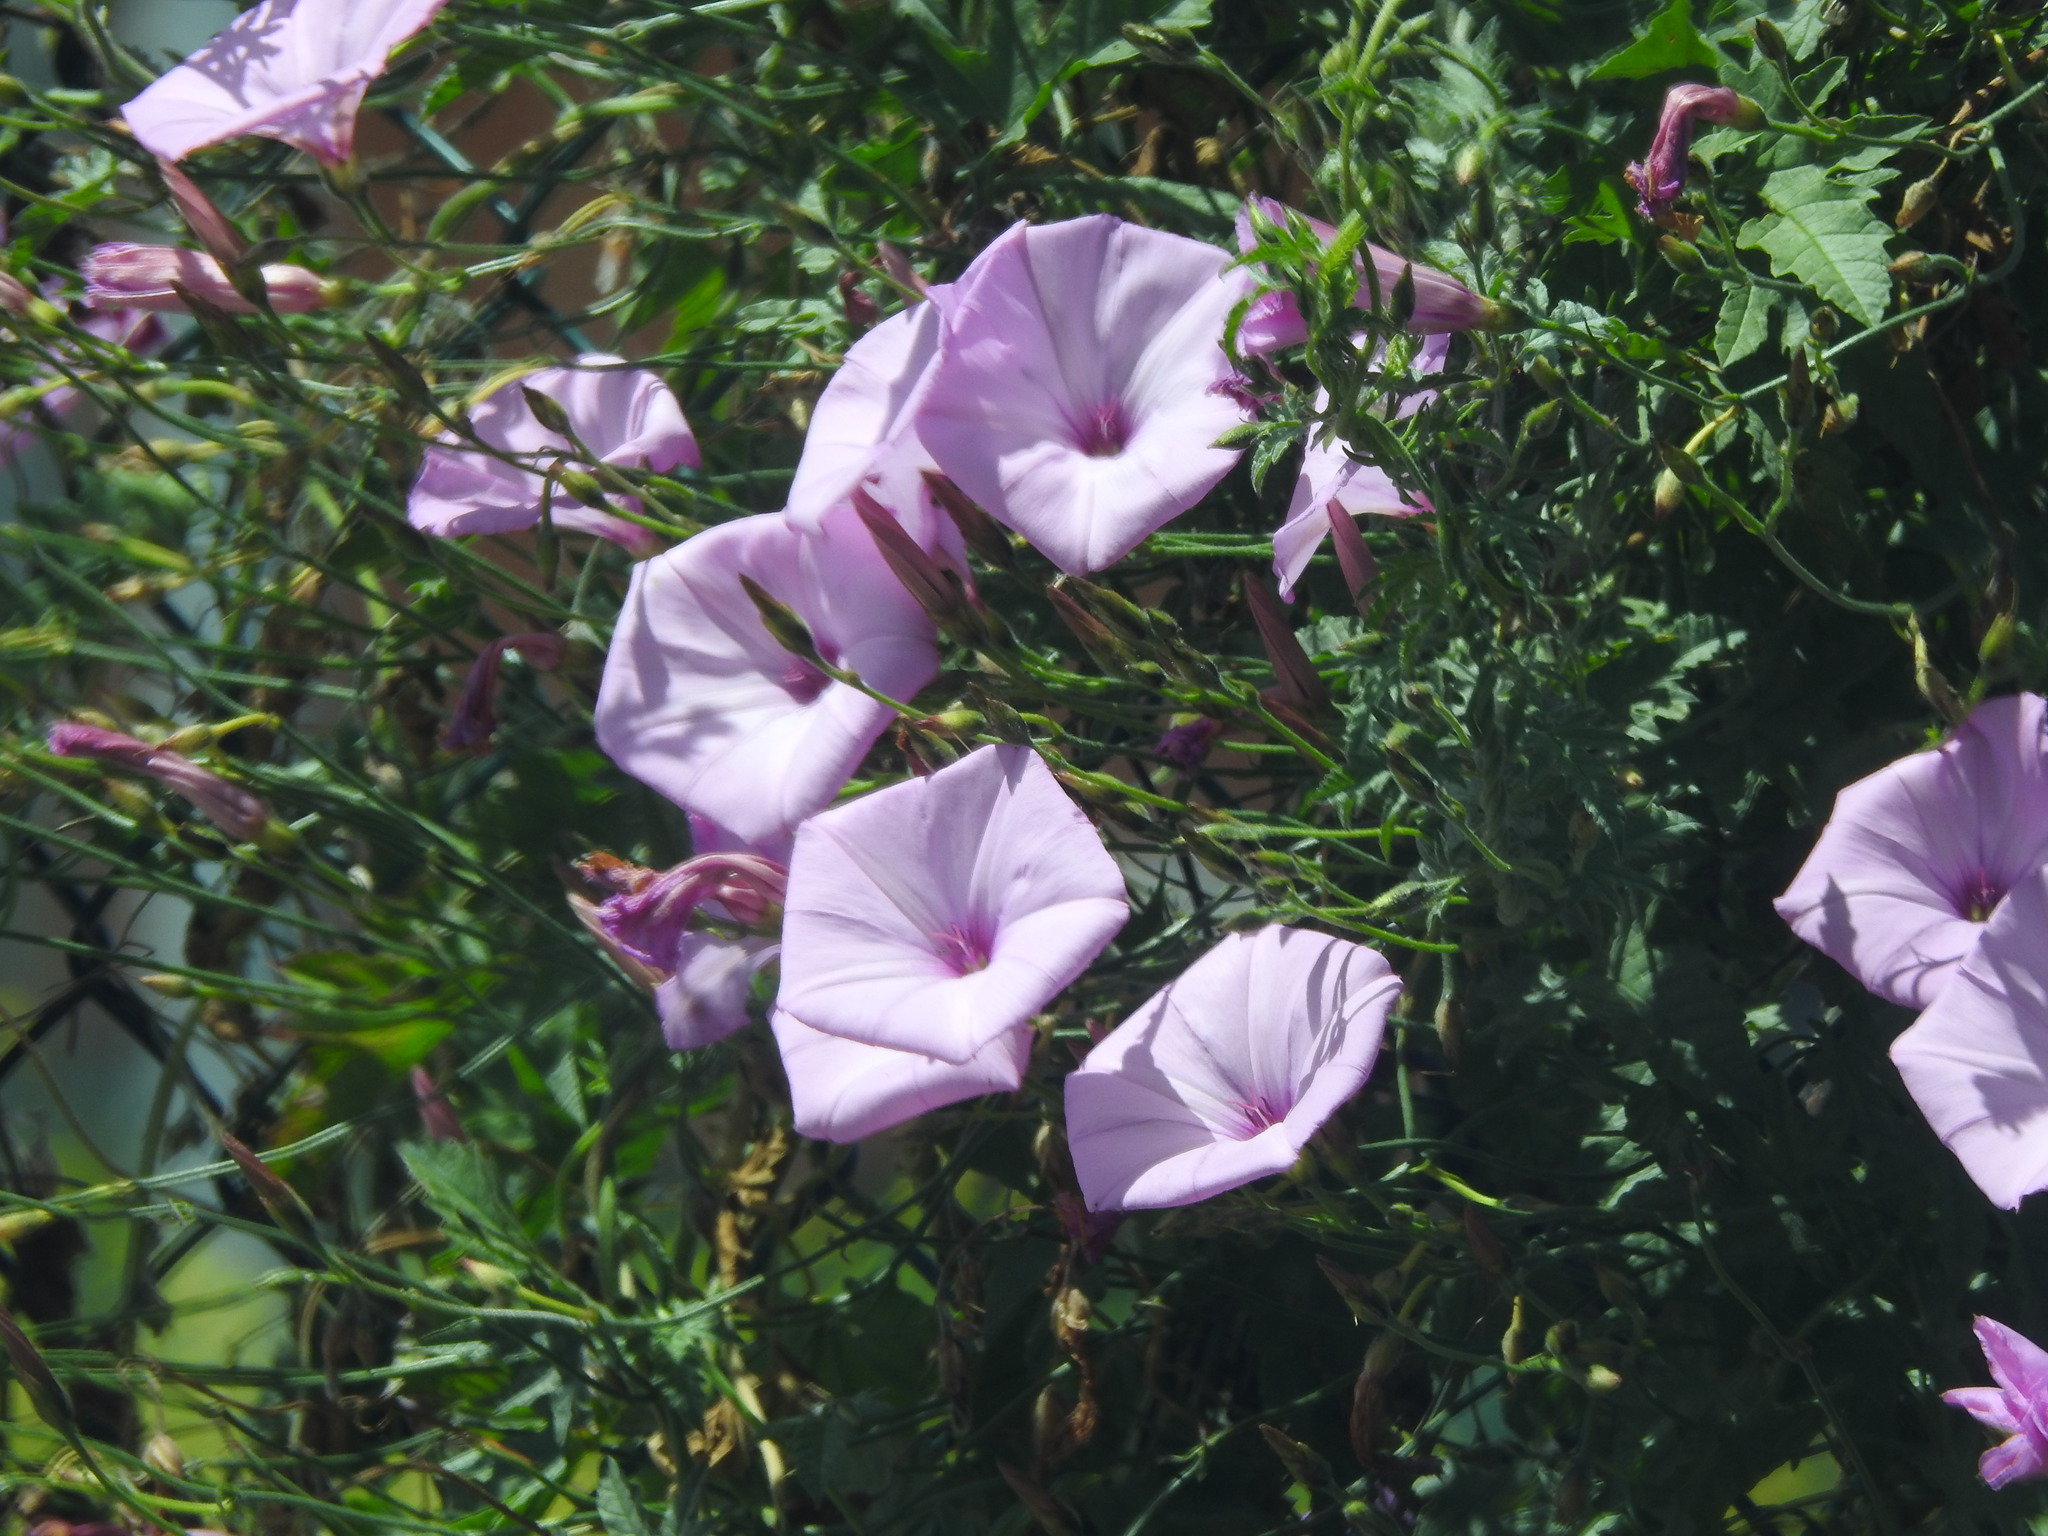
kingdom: Plantae
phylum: Tracheophyta
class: Magnoliopsida
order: Solanales
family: Convolvulaceae
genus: Convolvulus
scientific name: Convolvulus althaeoides
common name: Mallow bindweed
